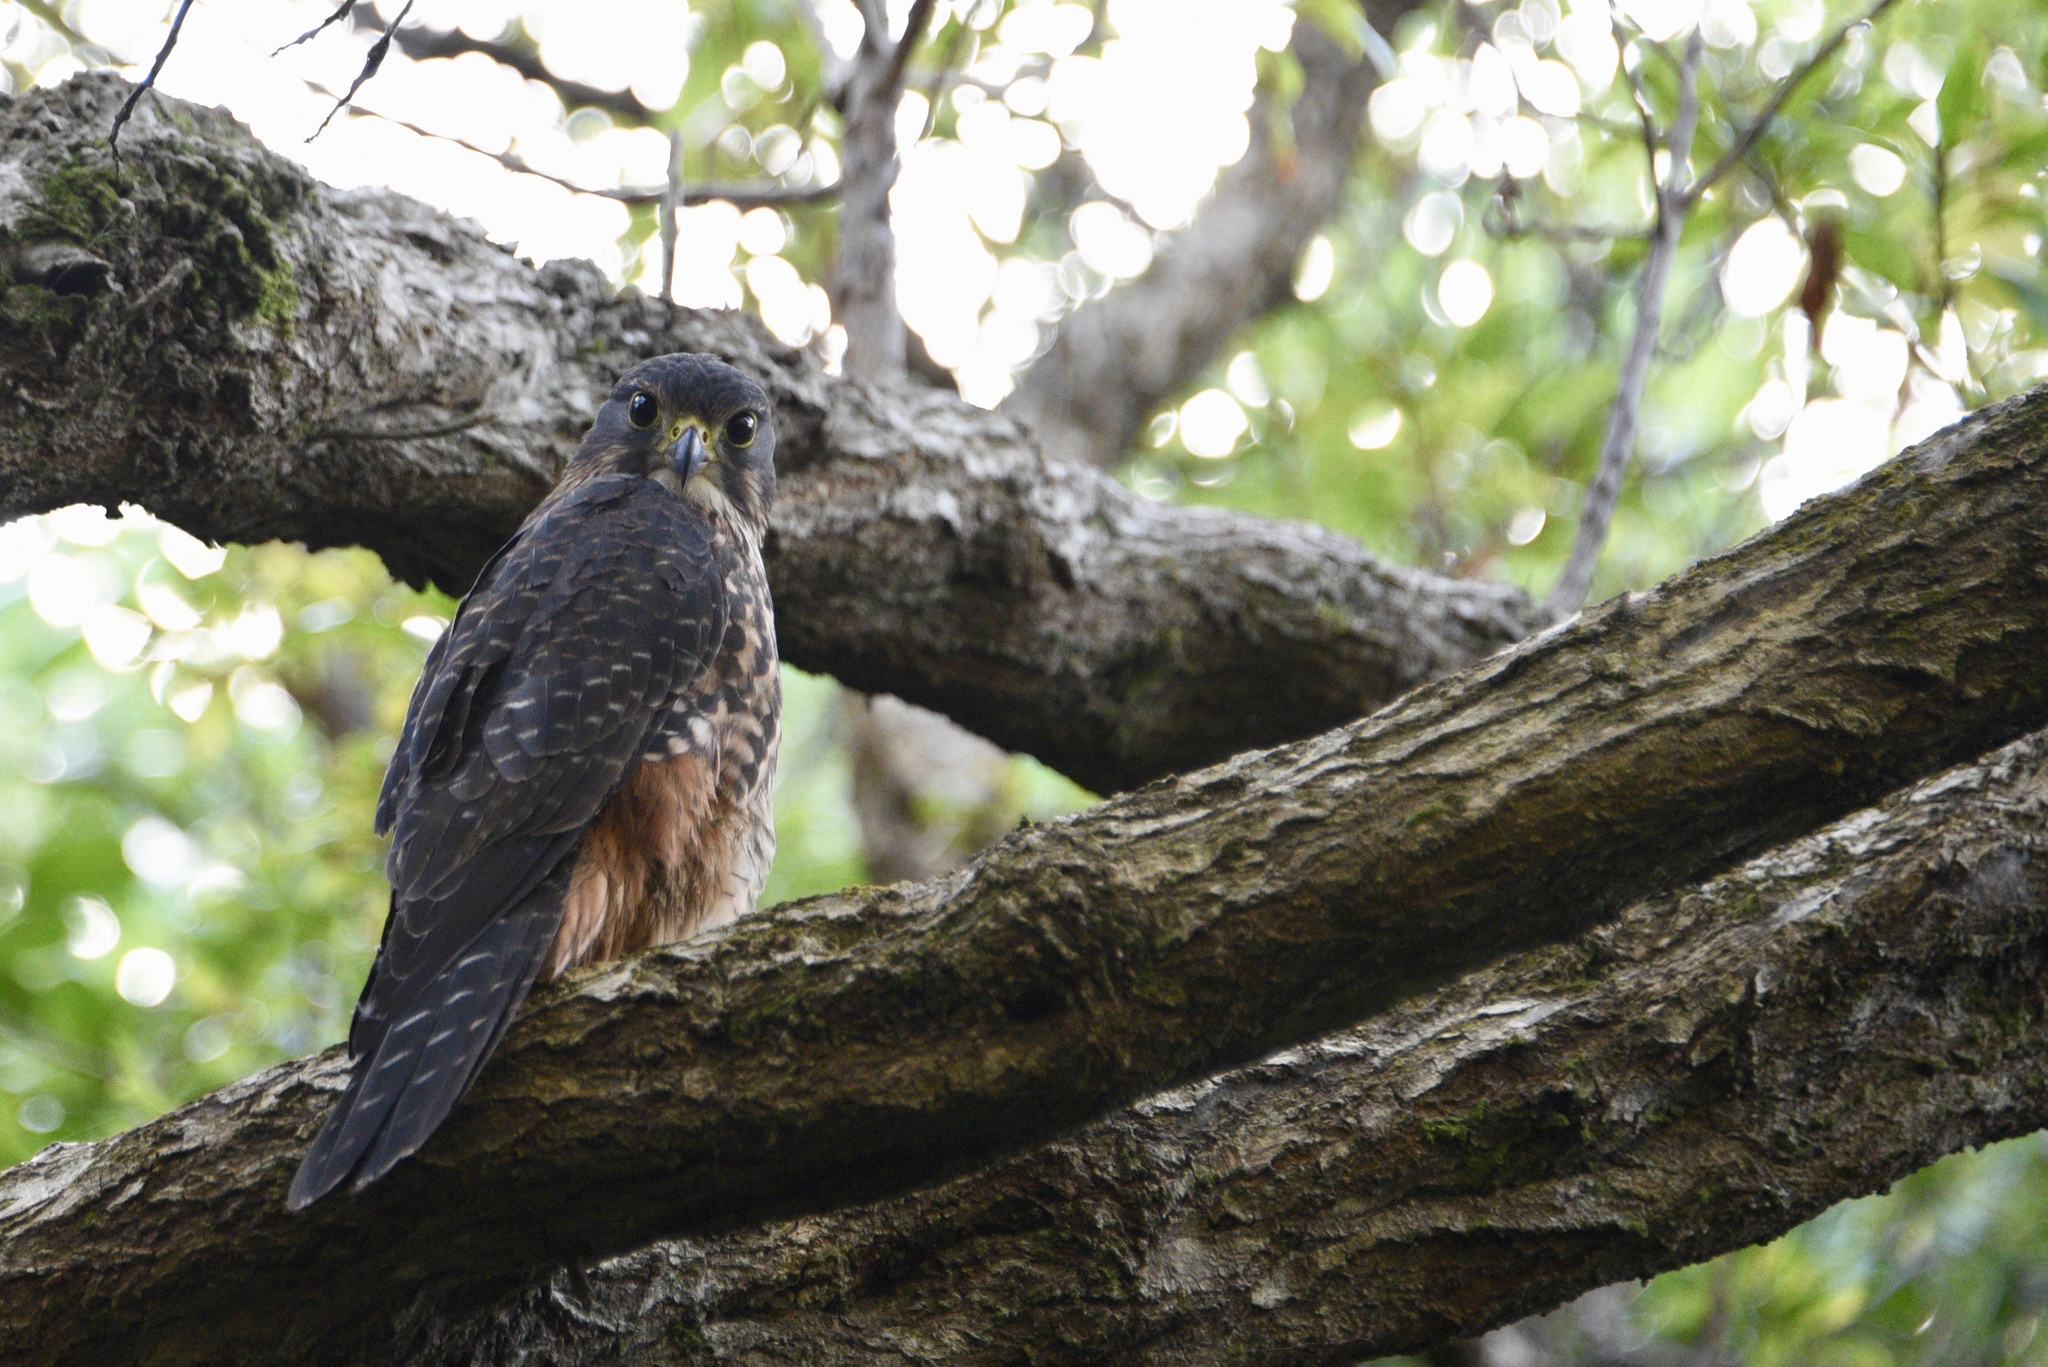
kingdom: Animalia
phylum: Chordata
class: Aves
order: Falconiformes
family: Falconidae
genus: Falco
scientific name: Falco novaeseelandiae
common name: New zealand falcon
